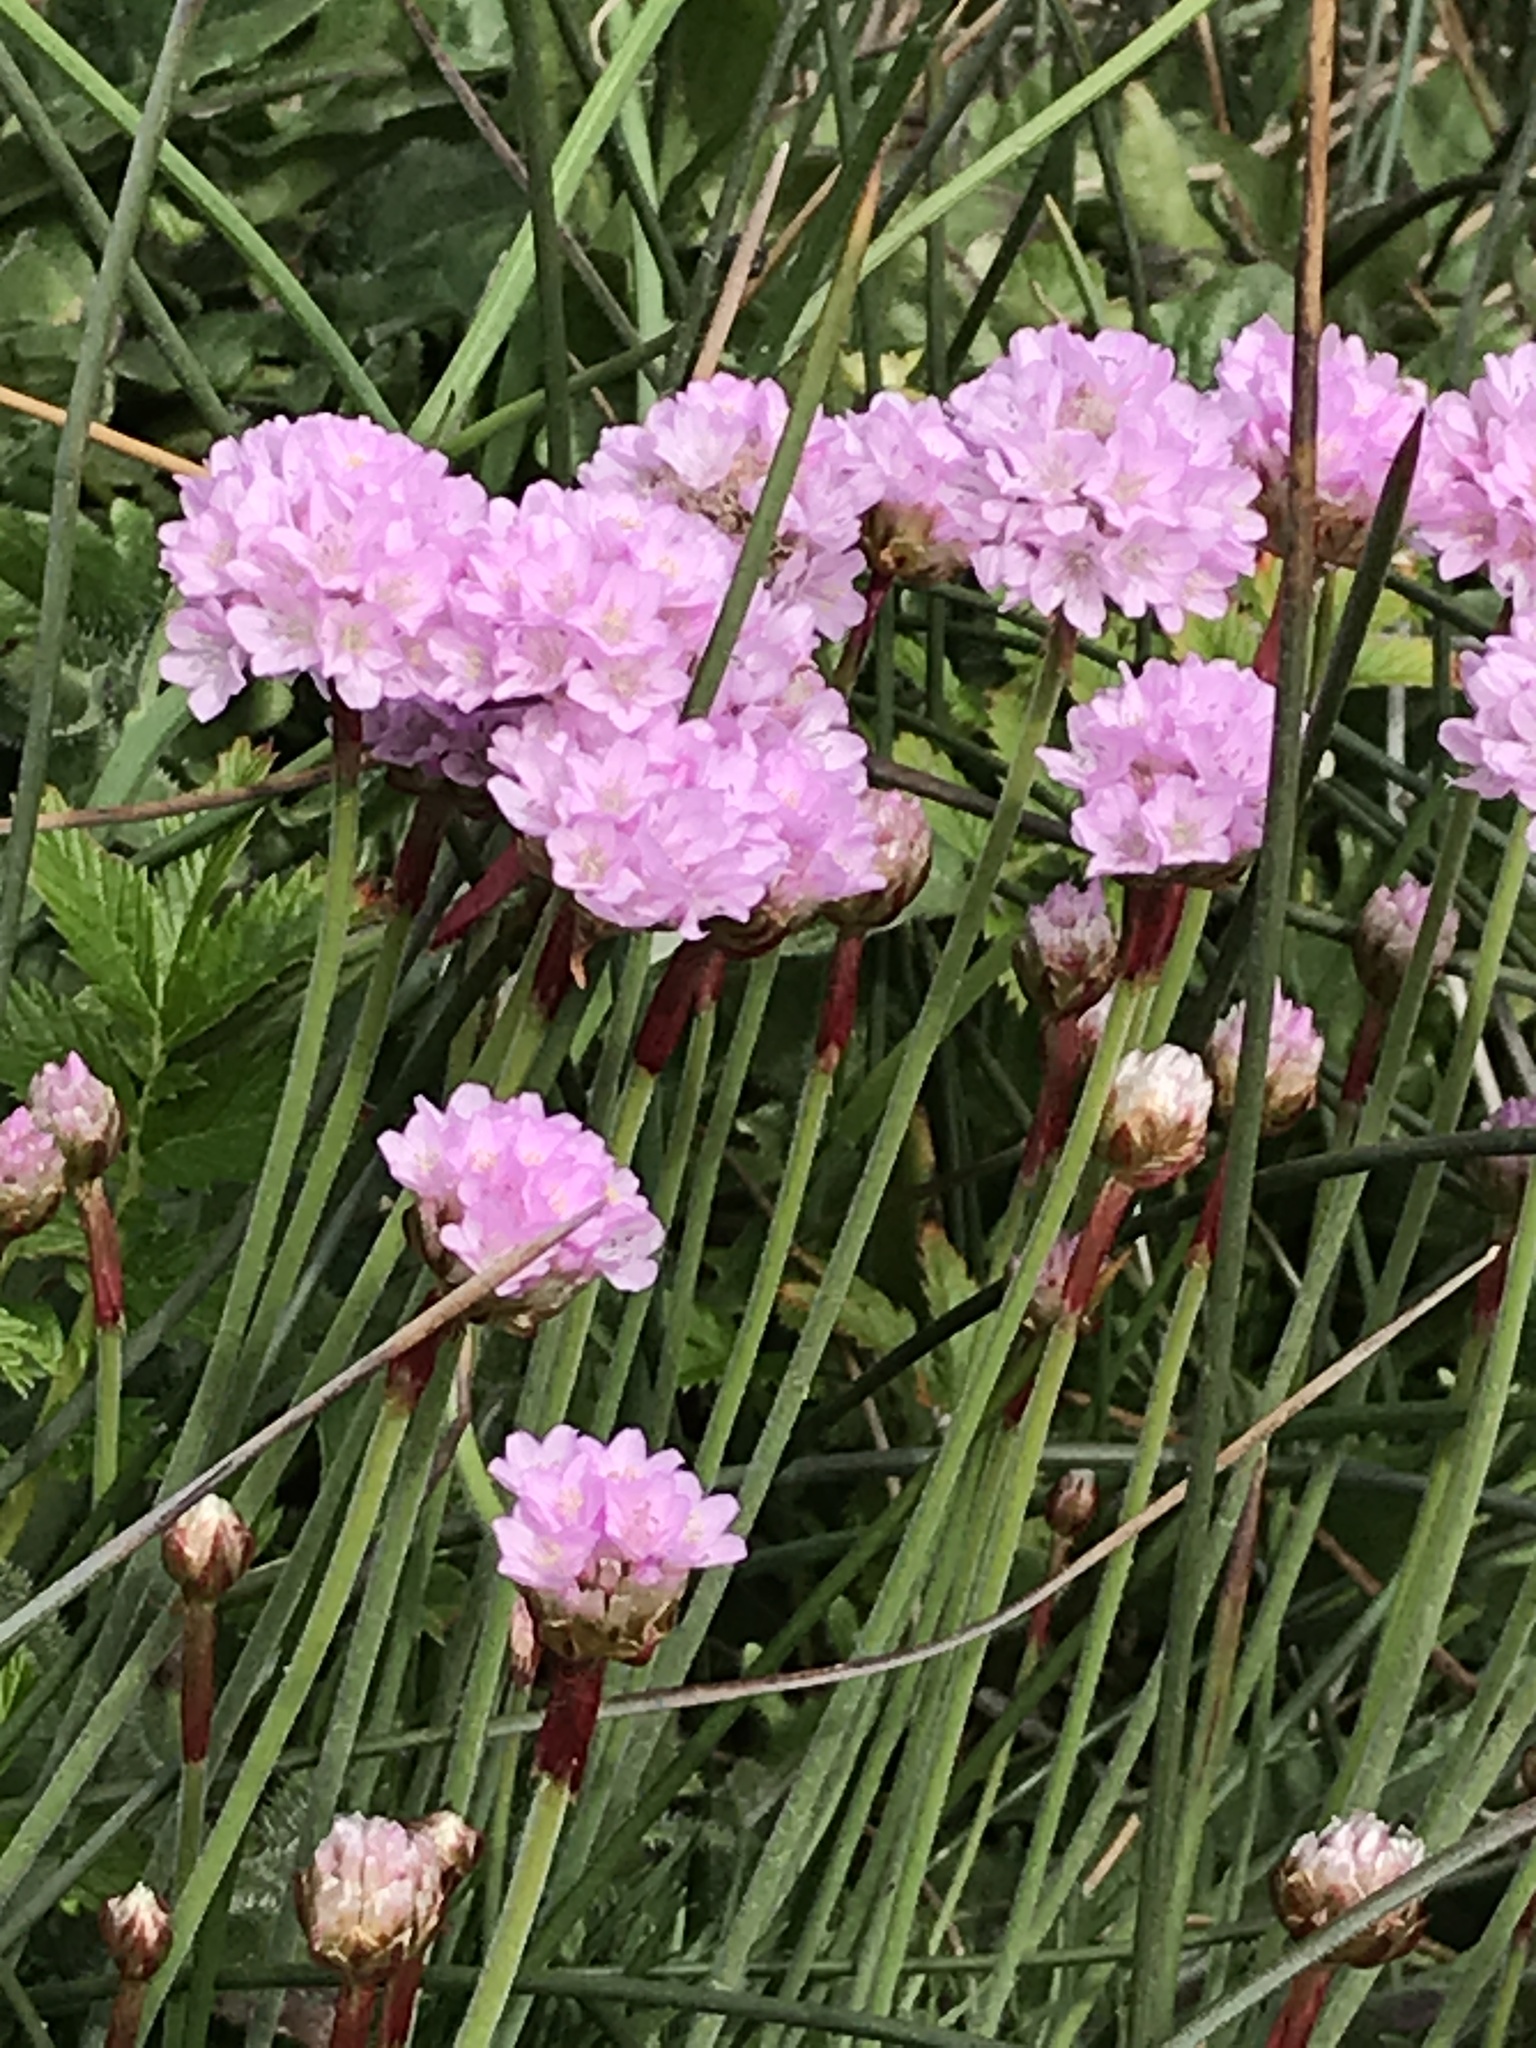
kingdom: Plantae
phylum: Tracheophyta
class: Magnoliopsida
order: Caryophyllales
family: Plumbaginaceae
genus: Armeria
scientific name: Armeria maritima
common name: Thrift
